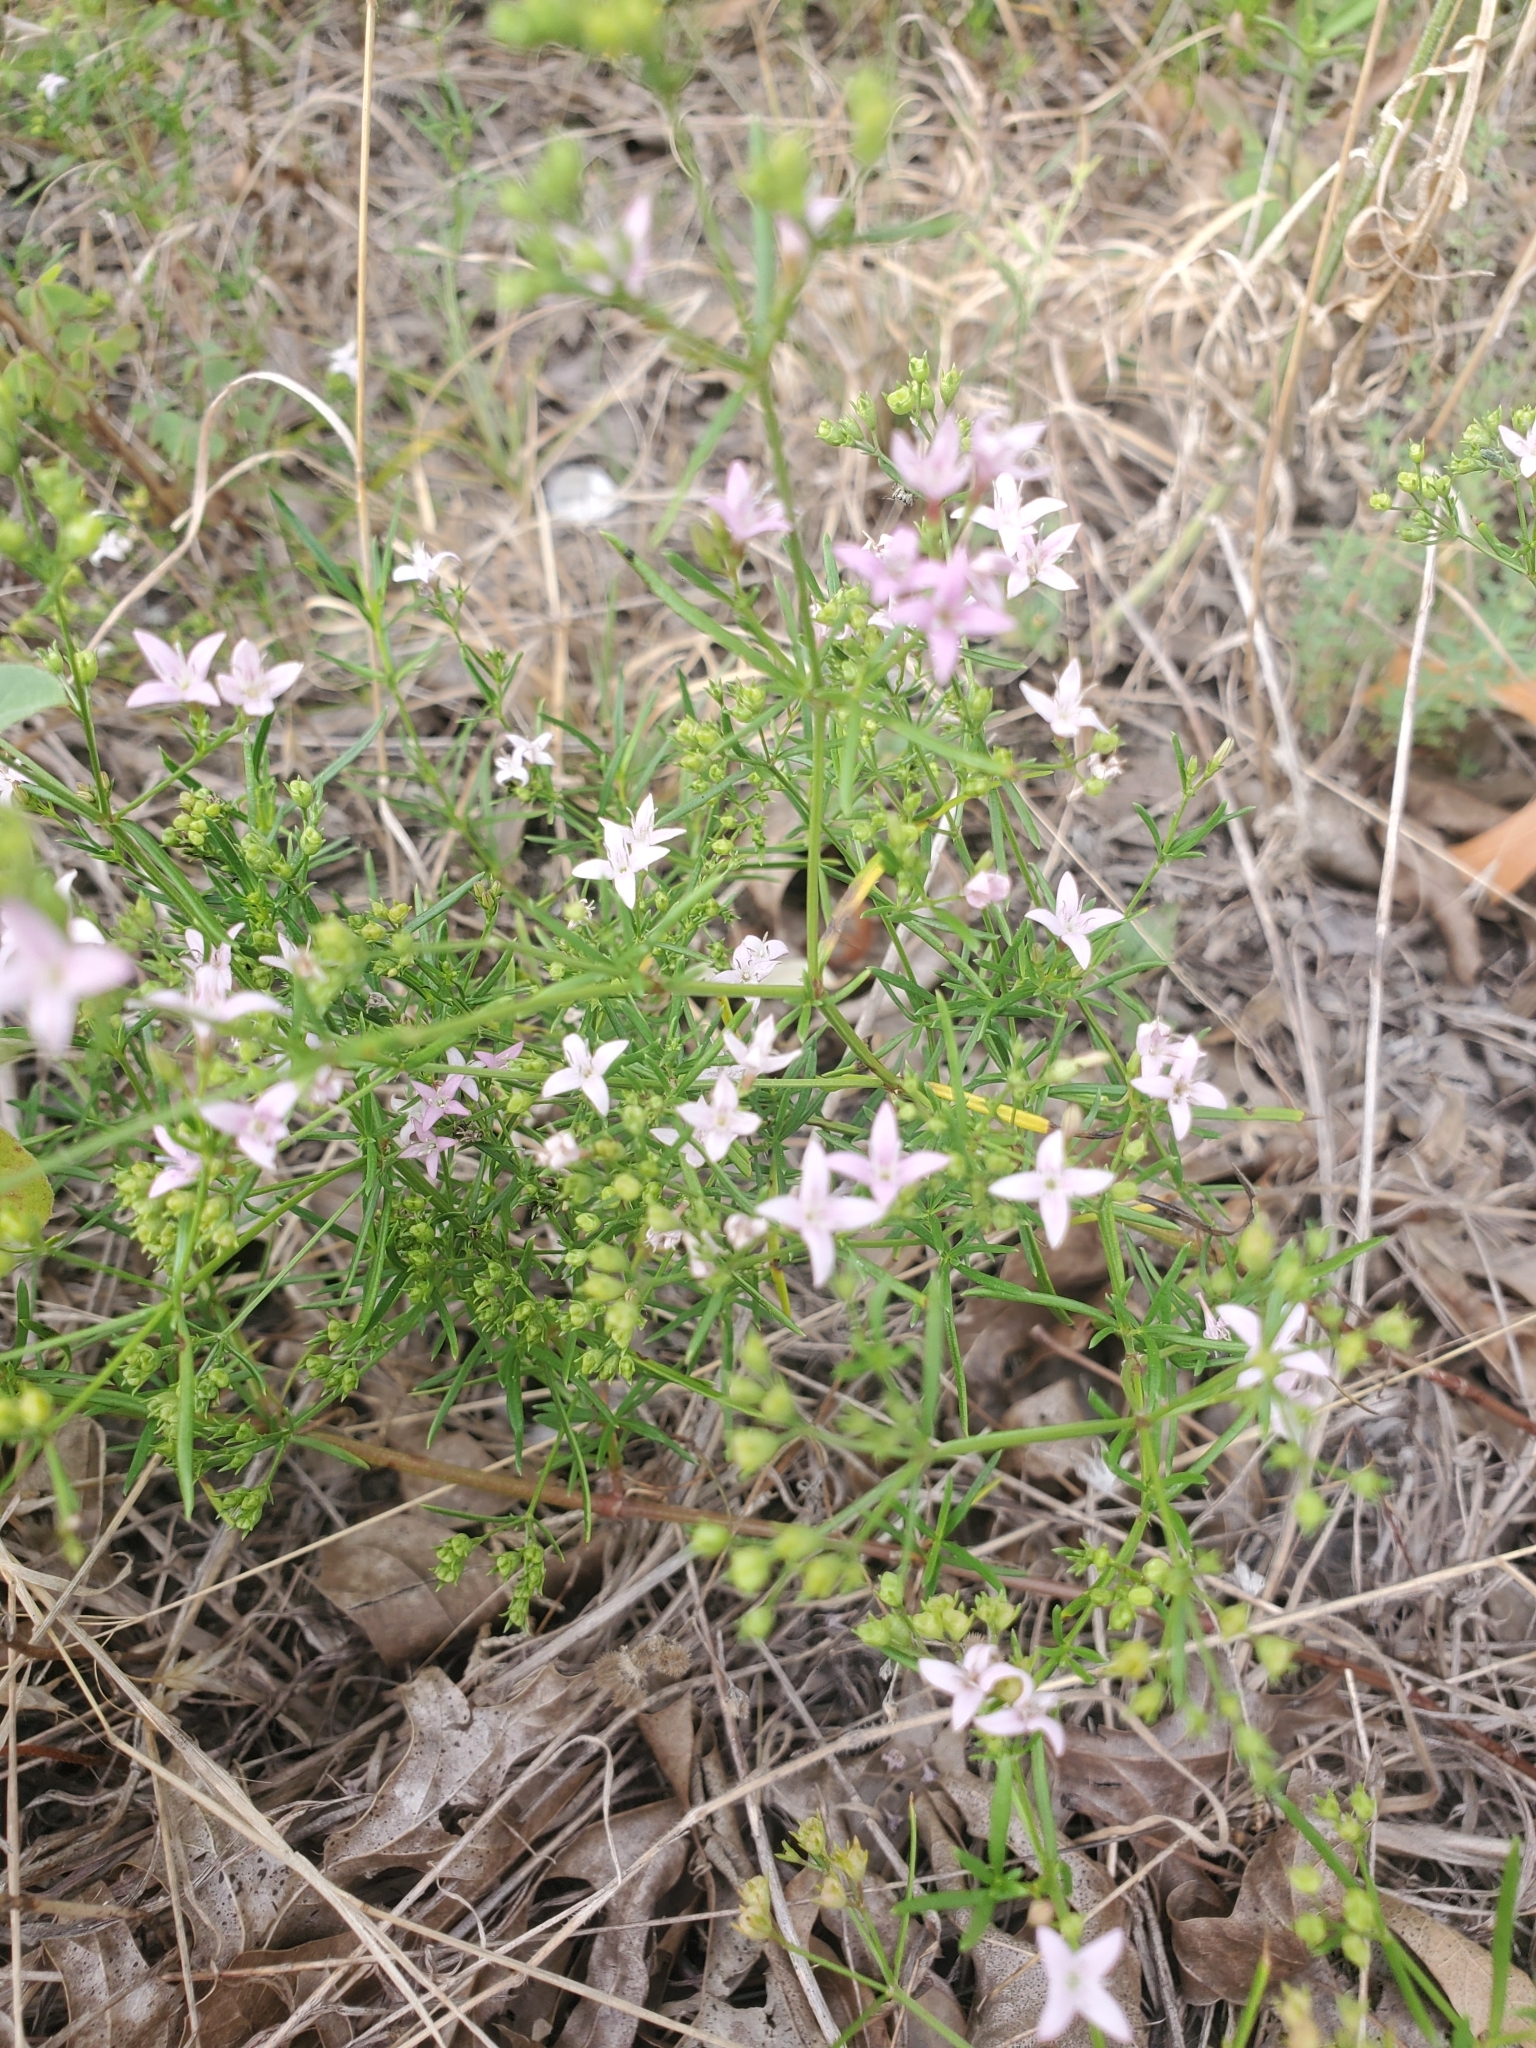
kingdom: Plantae
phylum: Tracheophyta
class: Magnoliopsida
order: Gentianales
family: Rubiaceae
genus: Stenaria
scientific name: Stenaria nigricans
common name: Diamondflowers
